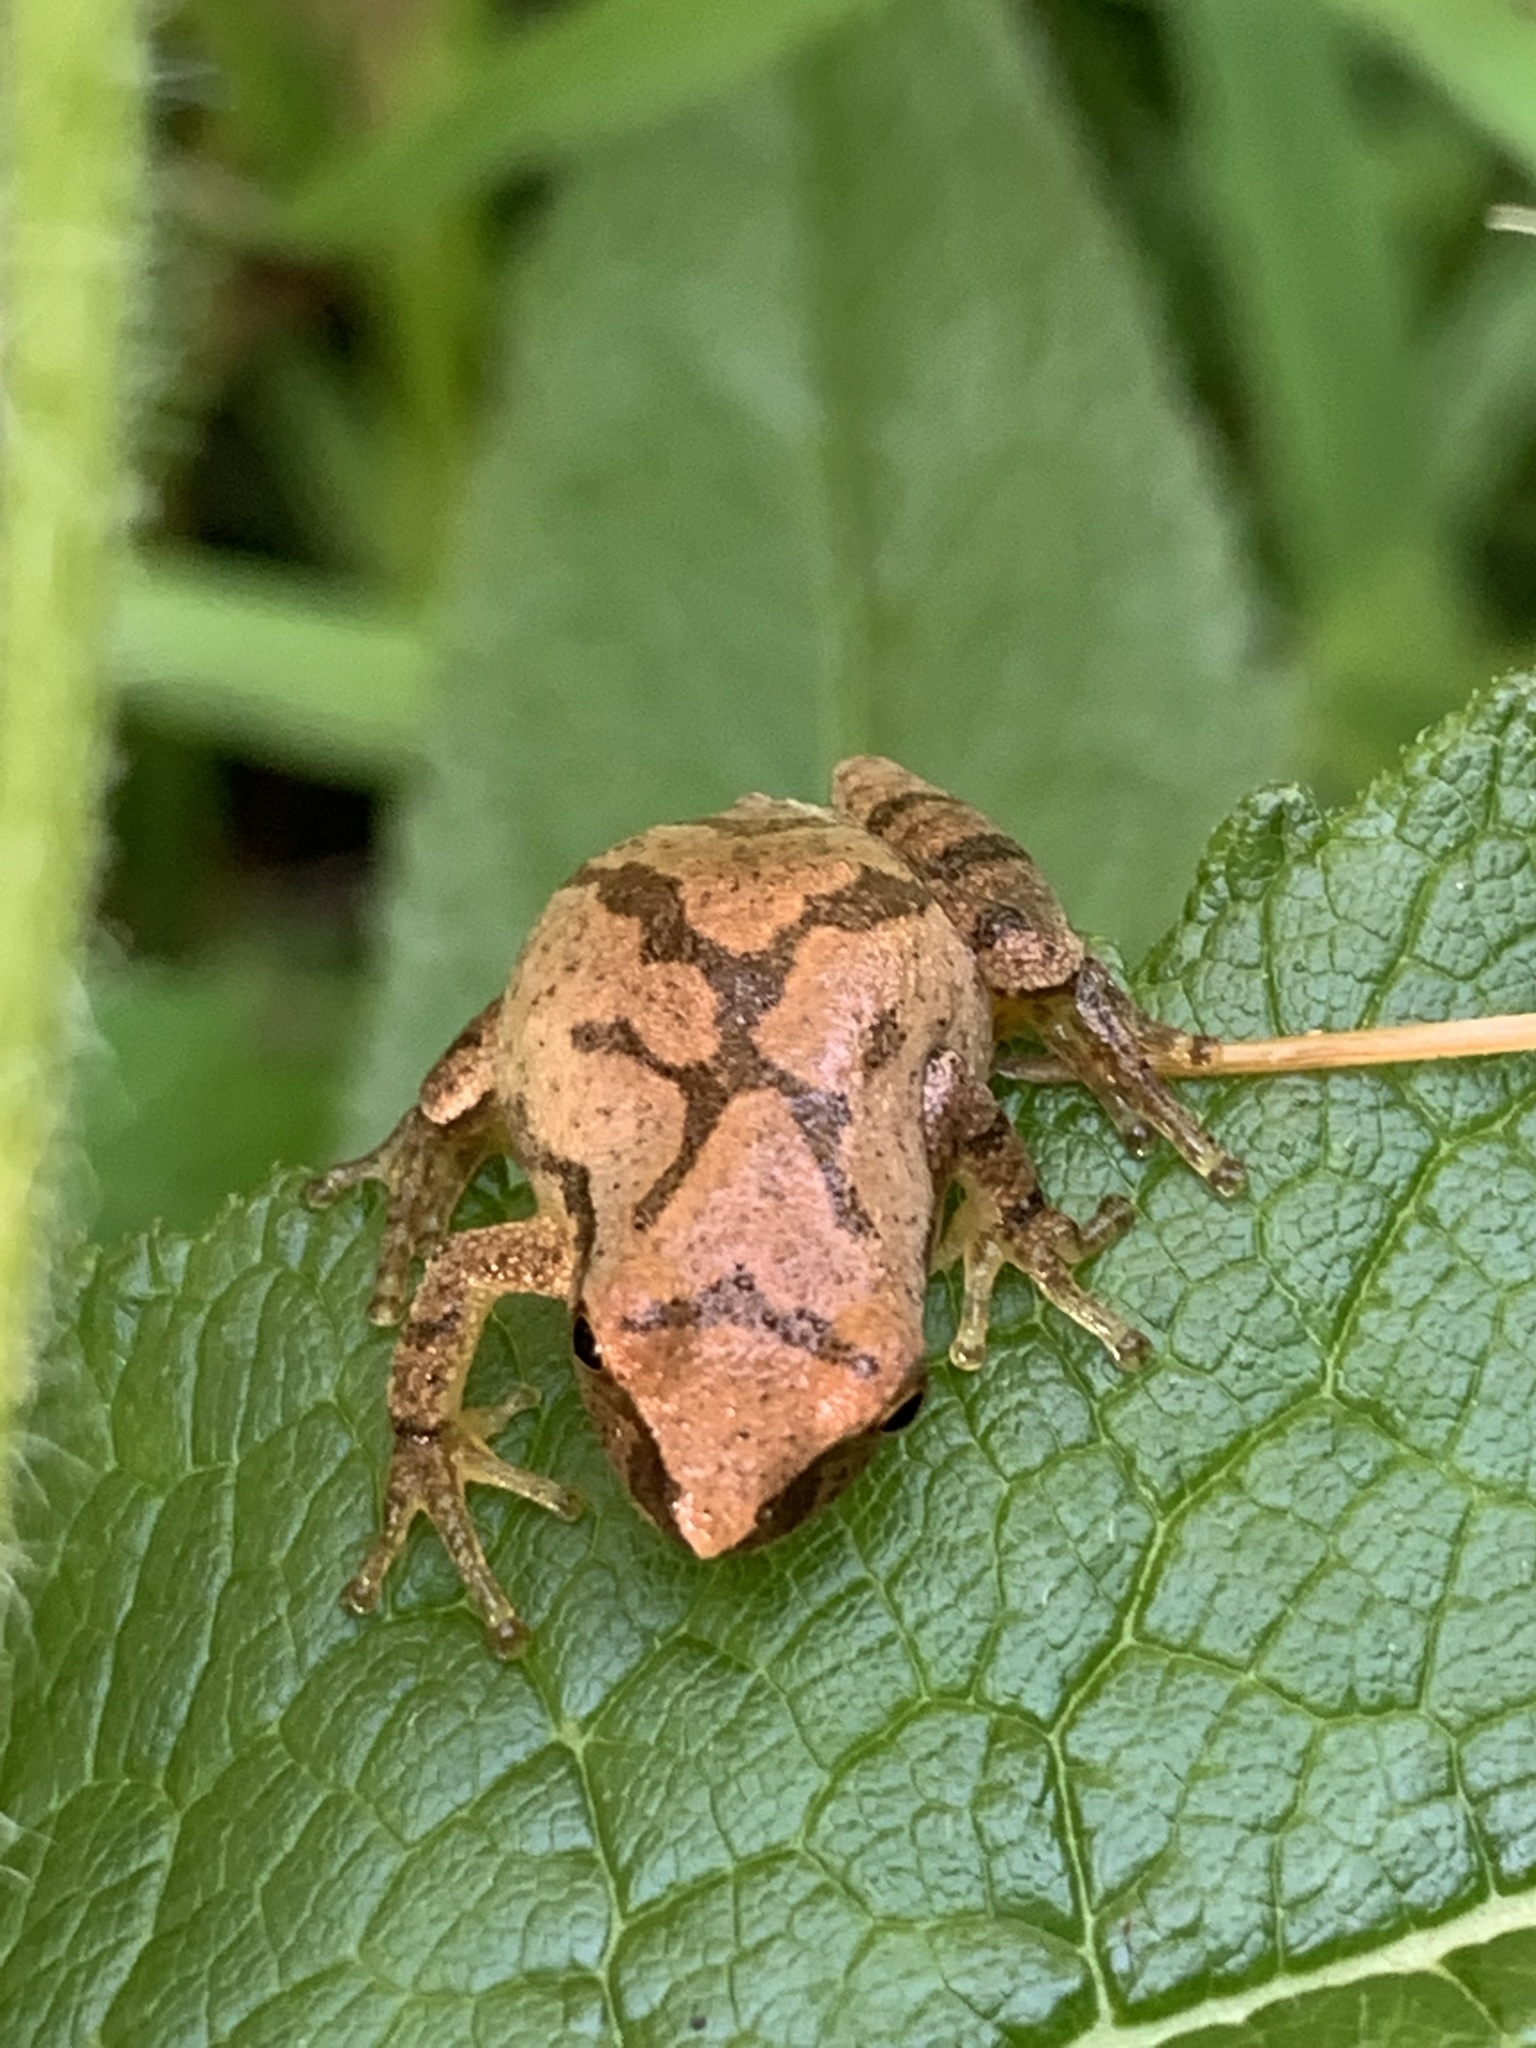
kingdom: Animalia
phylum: Chordata
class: Amphibia
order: Anura
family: Hylidae
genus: Pseudacris
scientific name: Pseudacris crucifer
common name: Spring peeper
